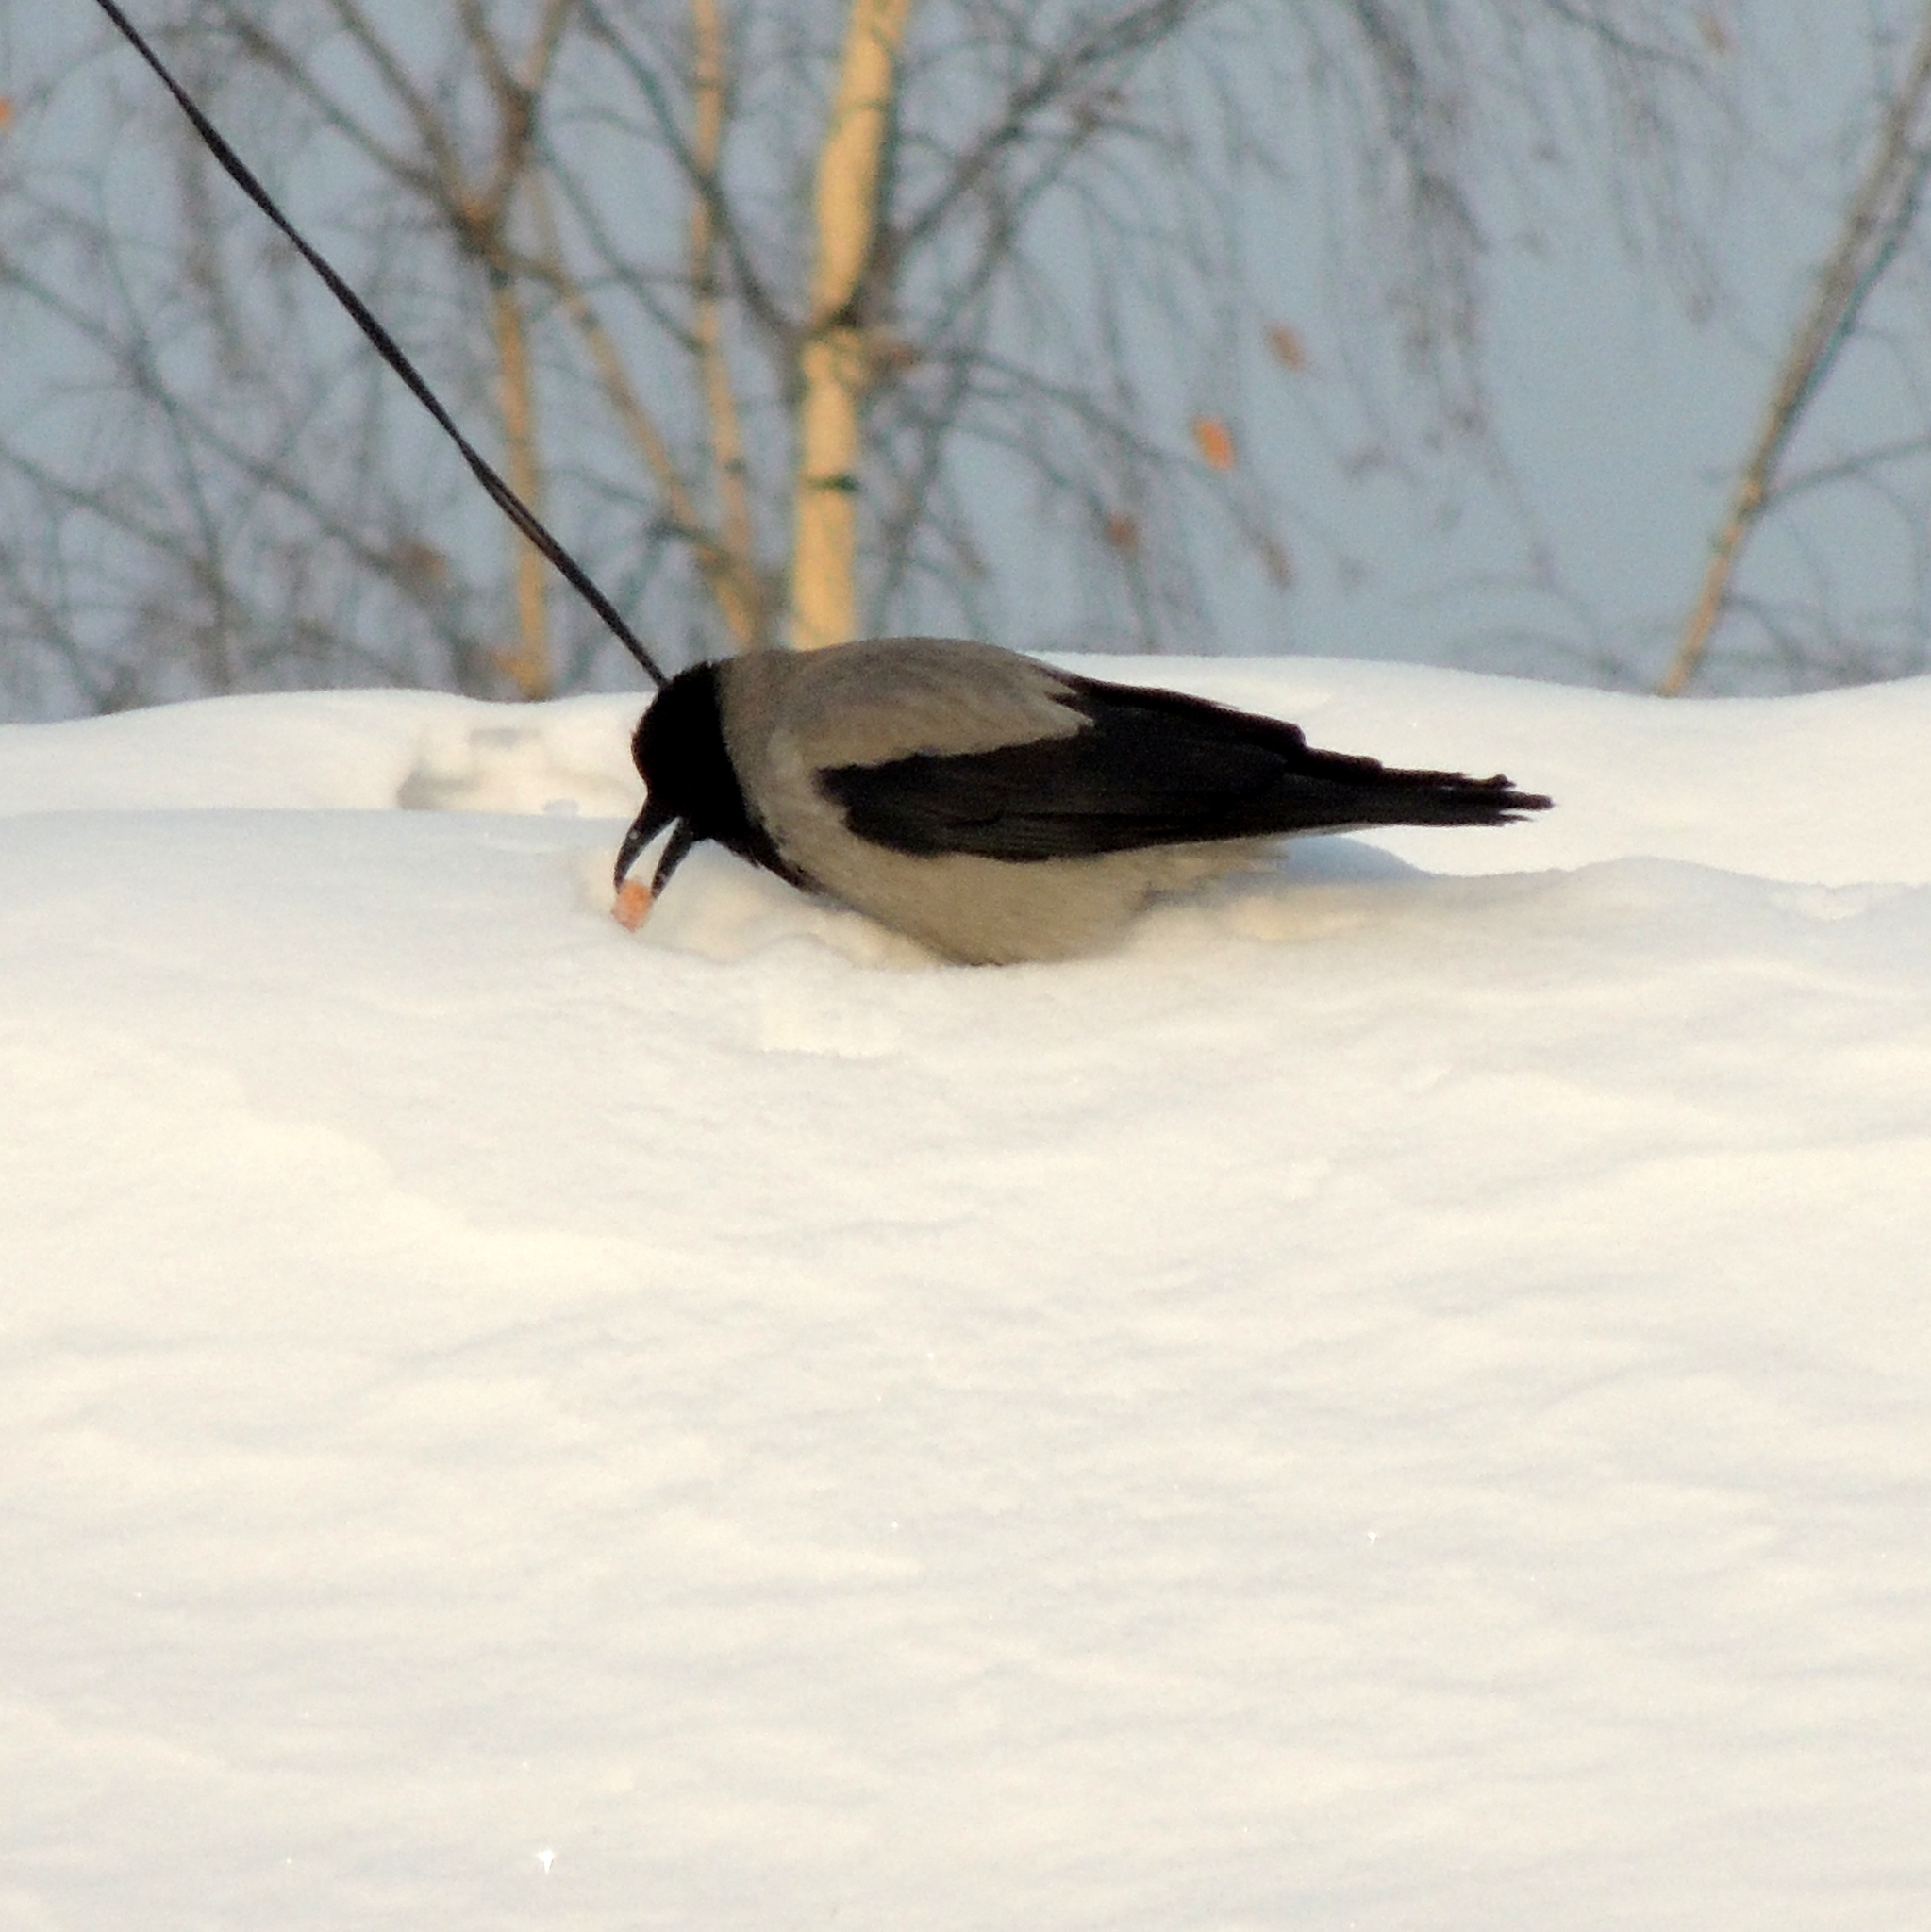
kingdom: Animalia
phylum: Chordata
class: Aves
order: Passeriformes
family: Corvidae
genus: Corvus
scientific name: Corvus cornix
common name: Hooded crow
